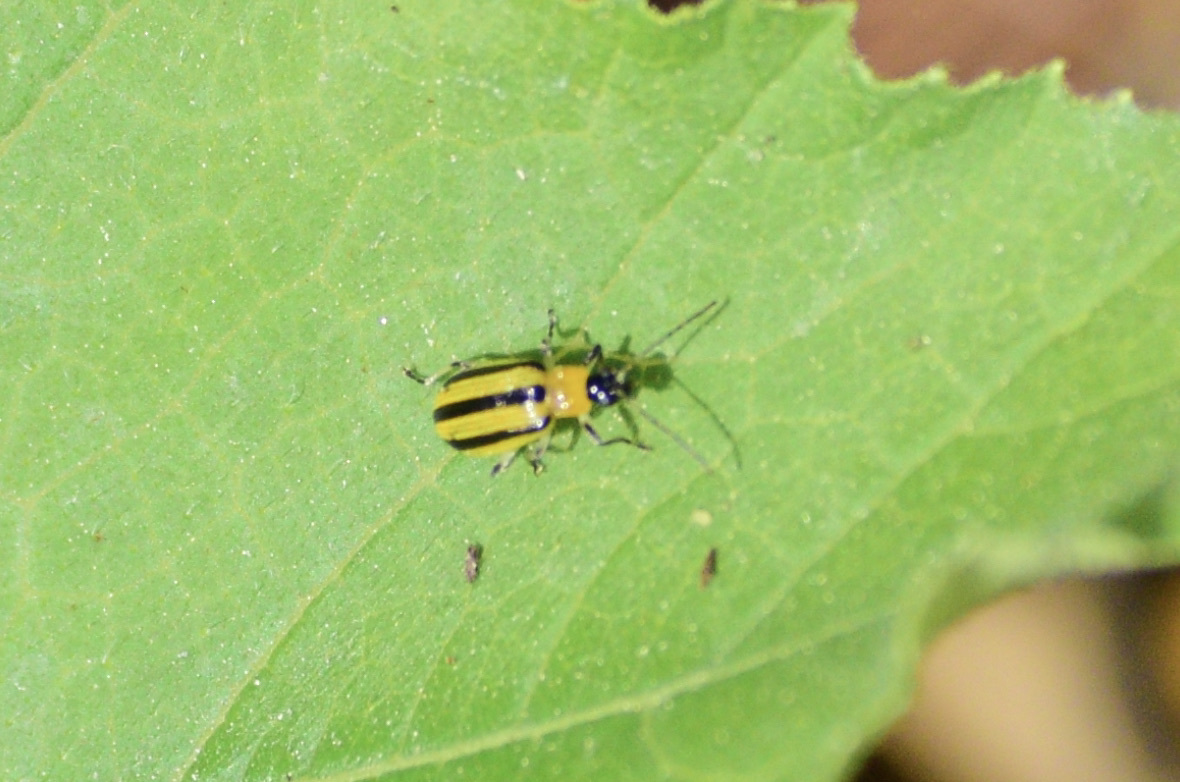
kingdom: Animalia
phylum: Arthropoda
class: Insecta
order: Coleoptera
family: Chrysomelidae
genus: Acalymma
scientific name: Acalymma vittatum
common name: Striped cucumber beetle
